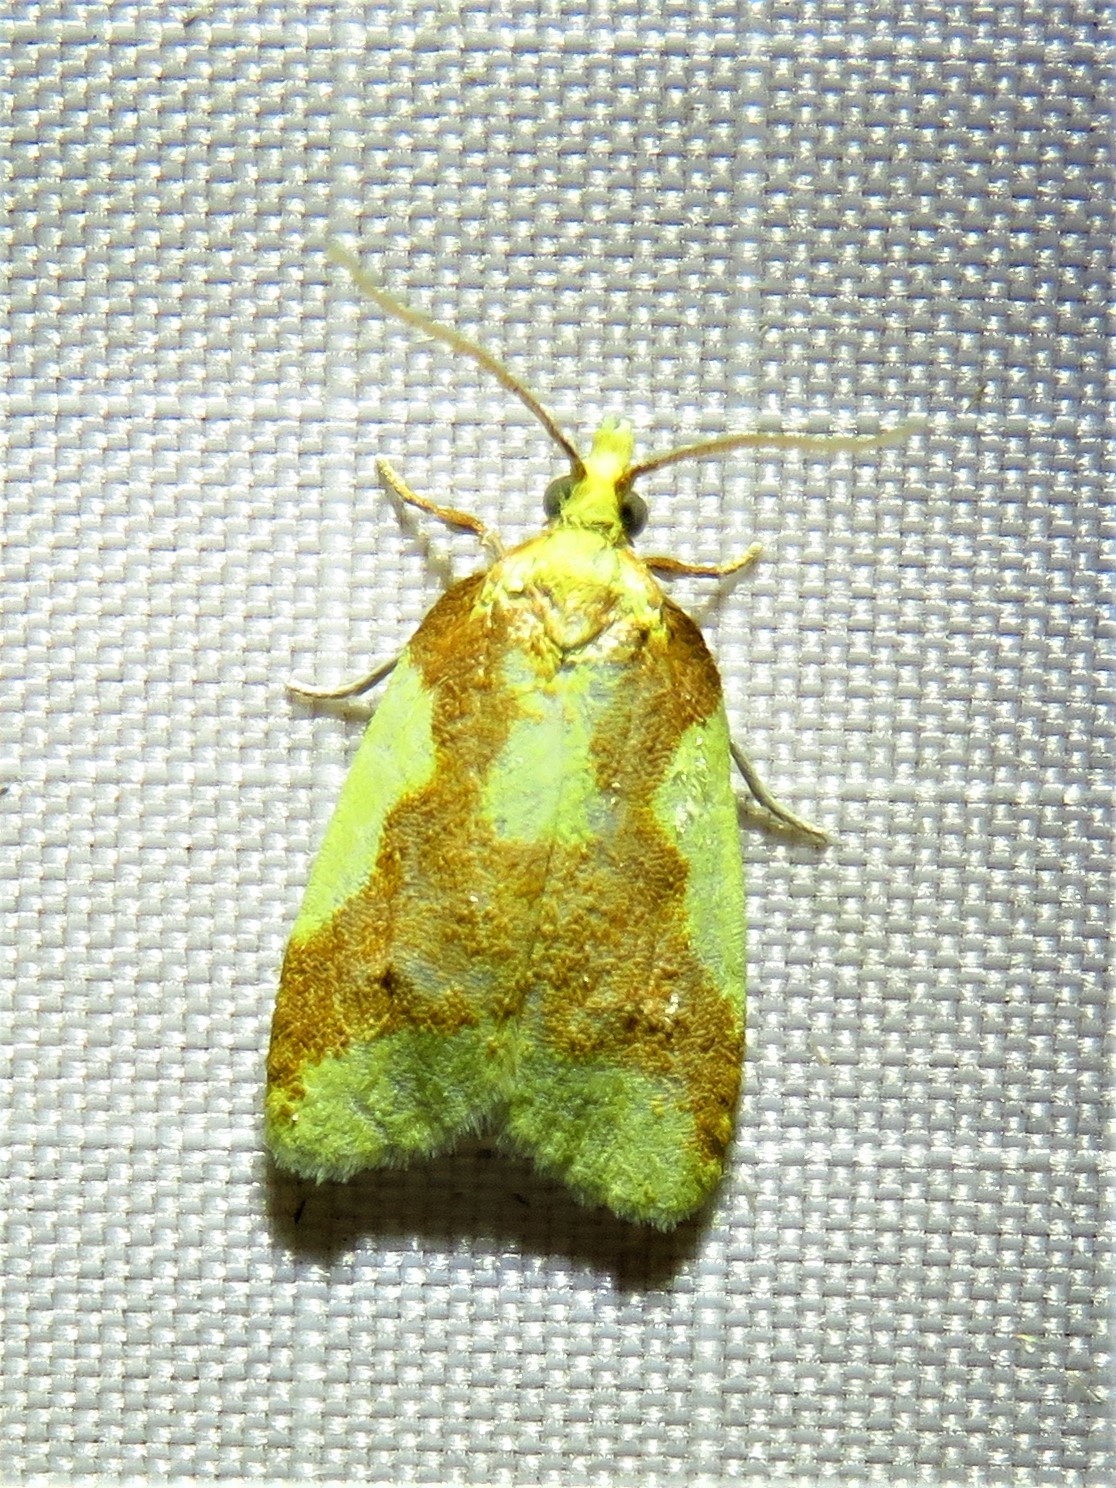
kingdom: Animalia
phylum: Arthropoda
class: Insecta
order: Lepidoptera
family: Tortricidae
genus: Sparganothis
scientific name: Sparganothis pulcherrimana
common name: Beautiful sparganothis
